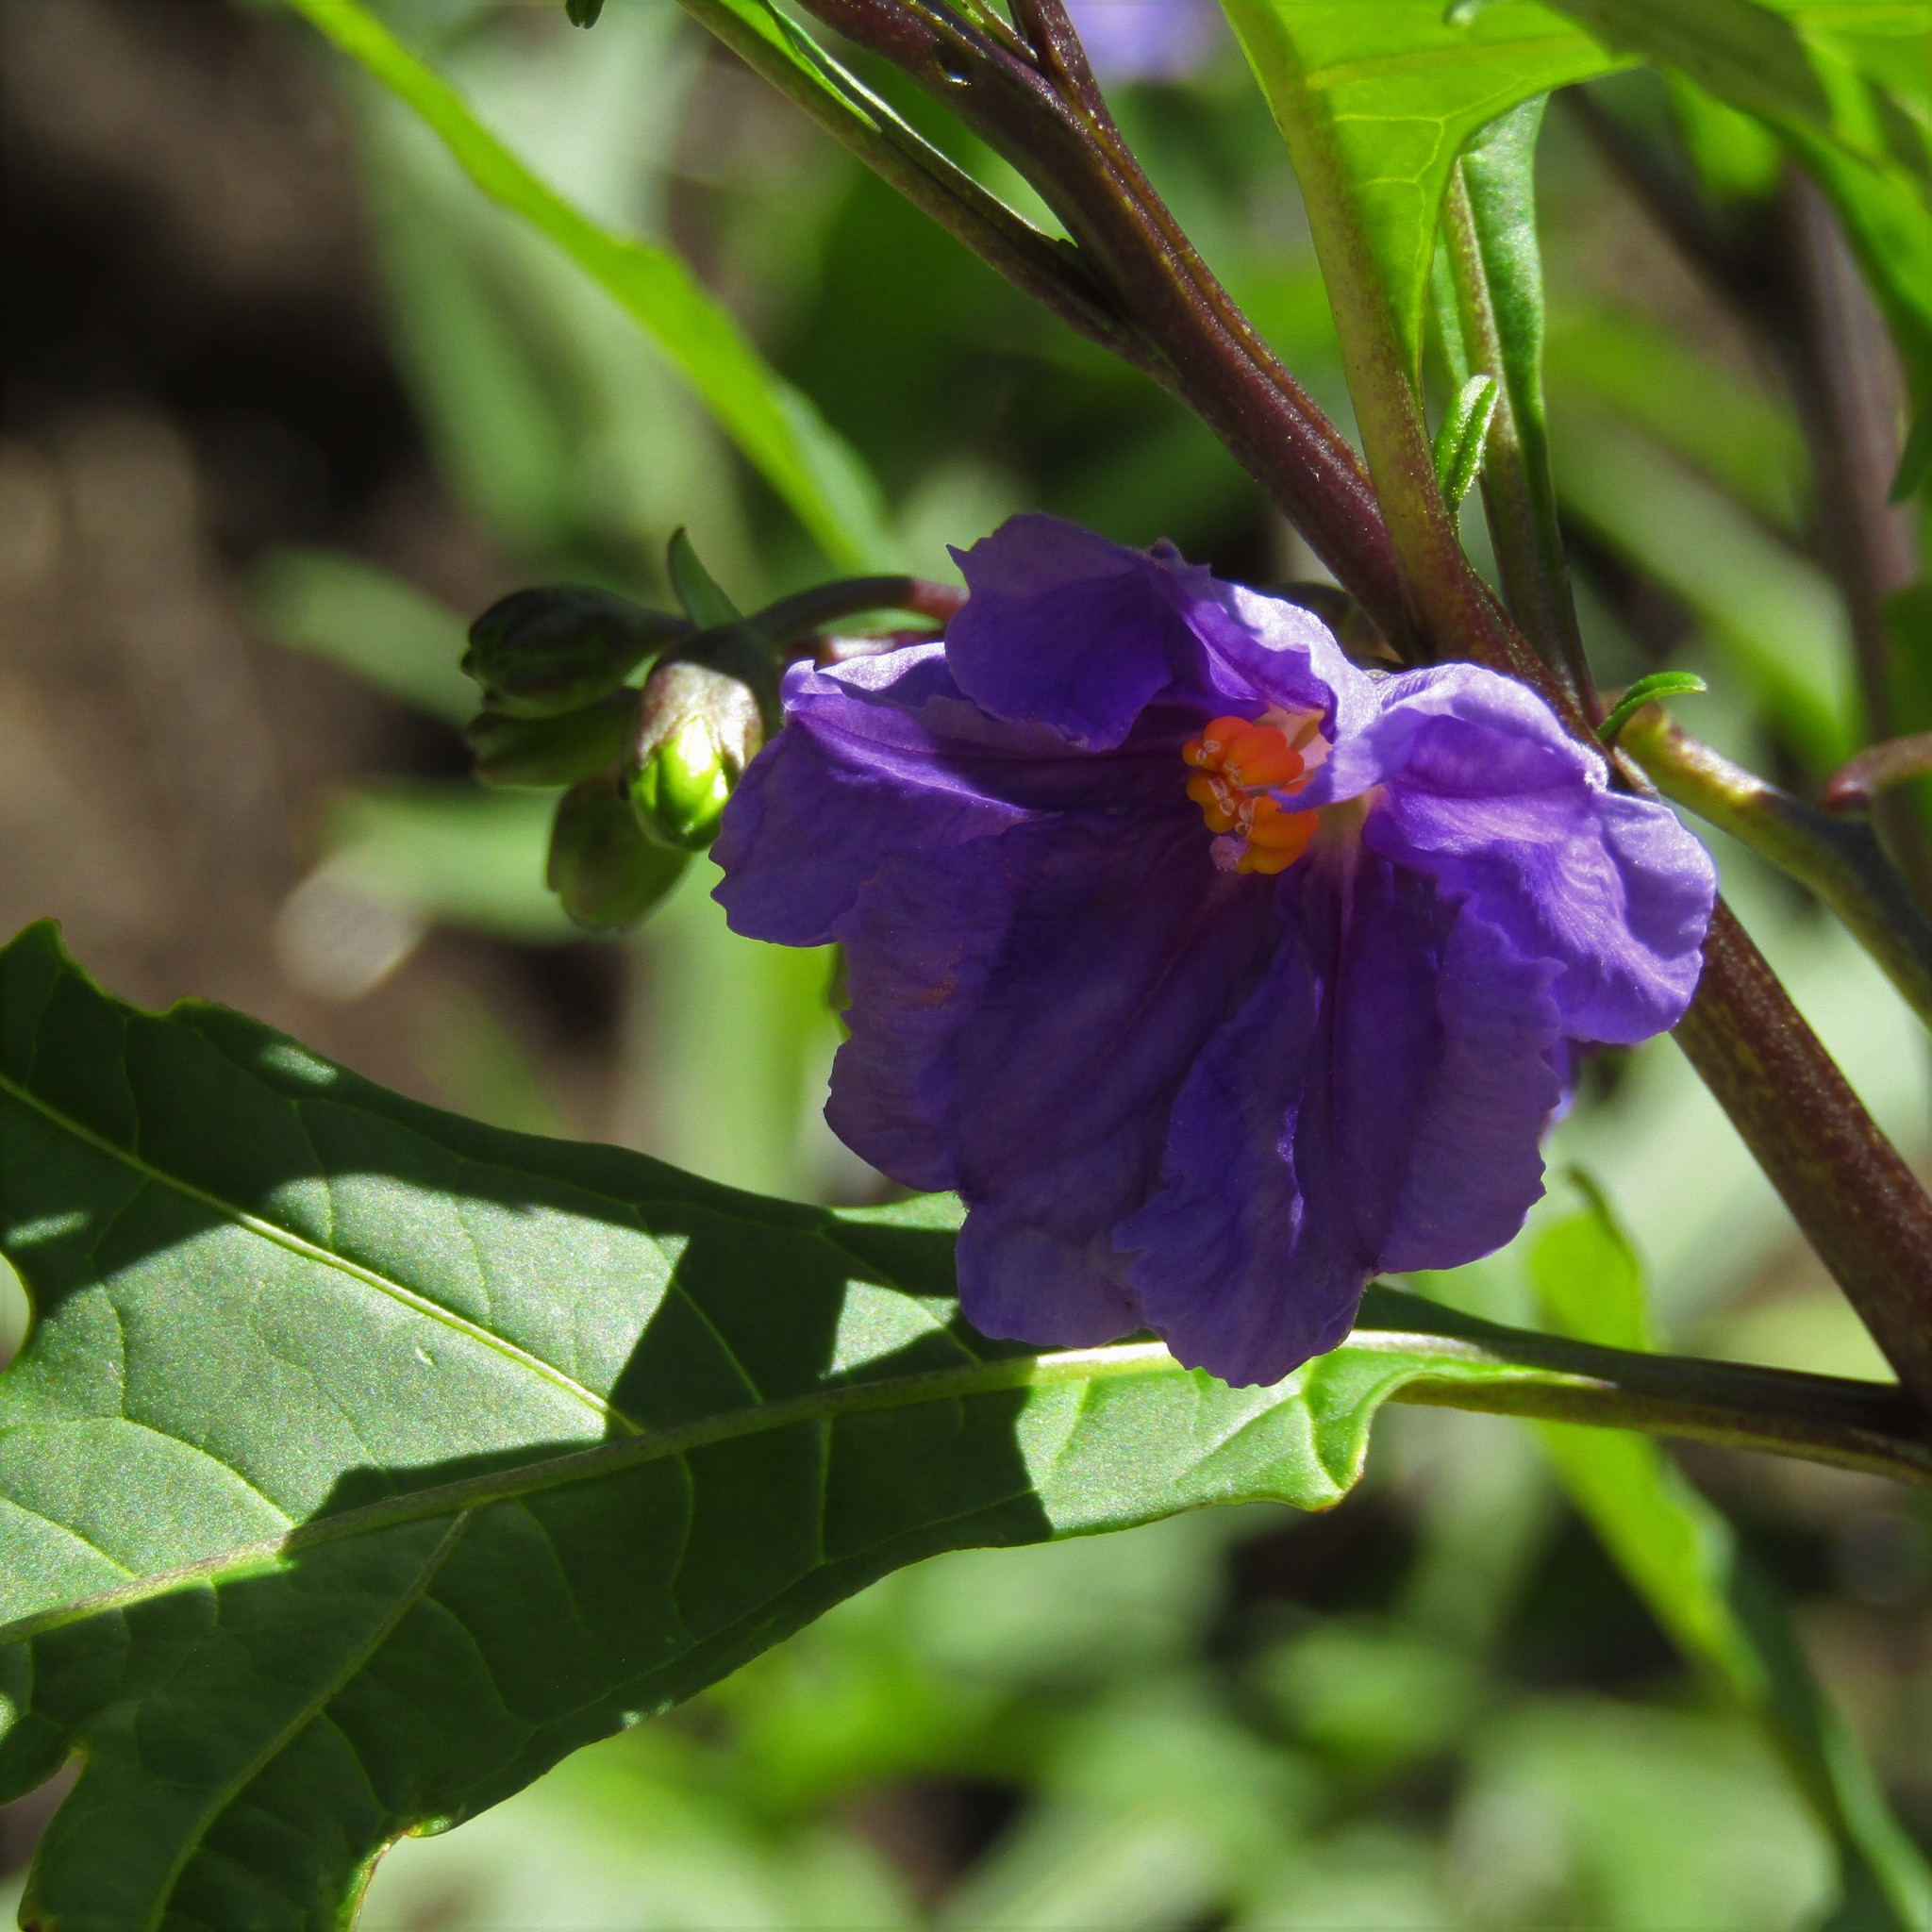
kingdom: Plantae
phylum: Tracheophyta
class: Magnoliopsida
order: Solanales
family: Solanaceae
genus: Solanum
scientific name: Solanum laciniatum
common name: Kangaroo-apple
